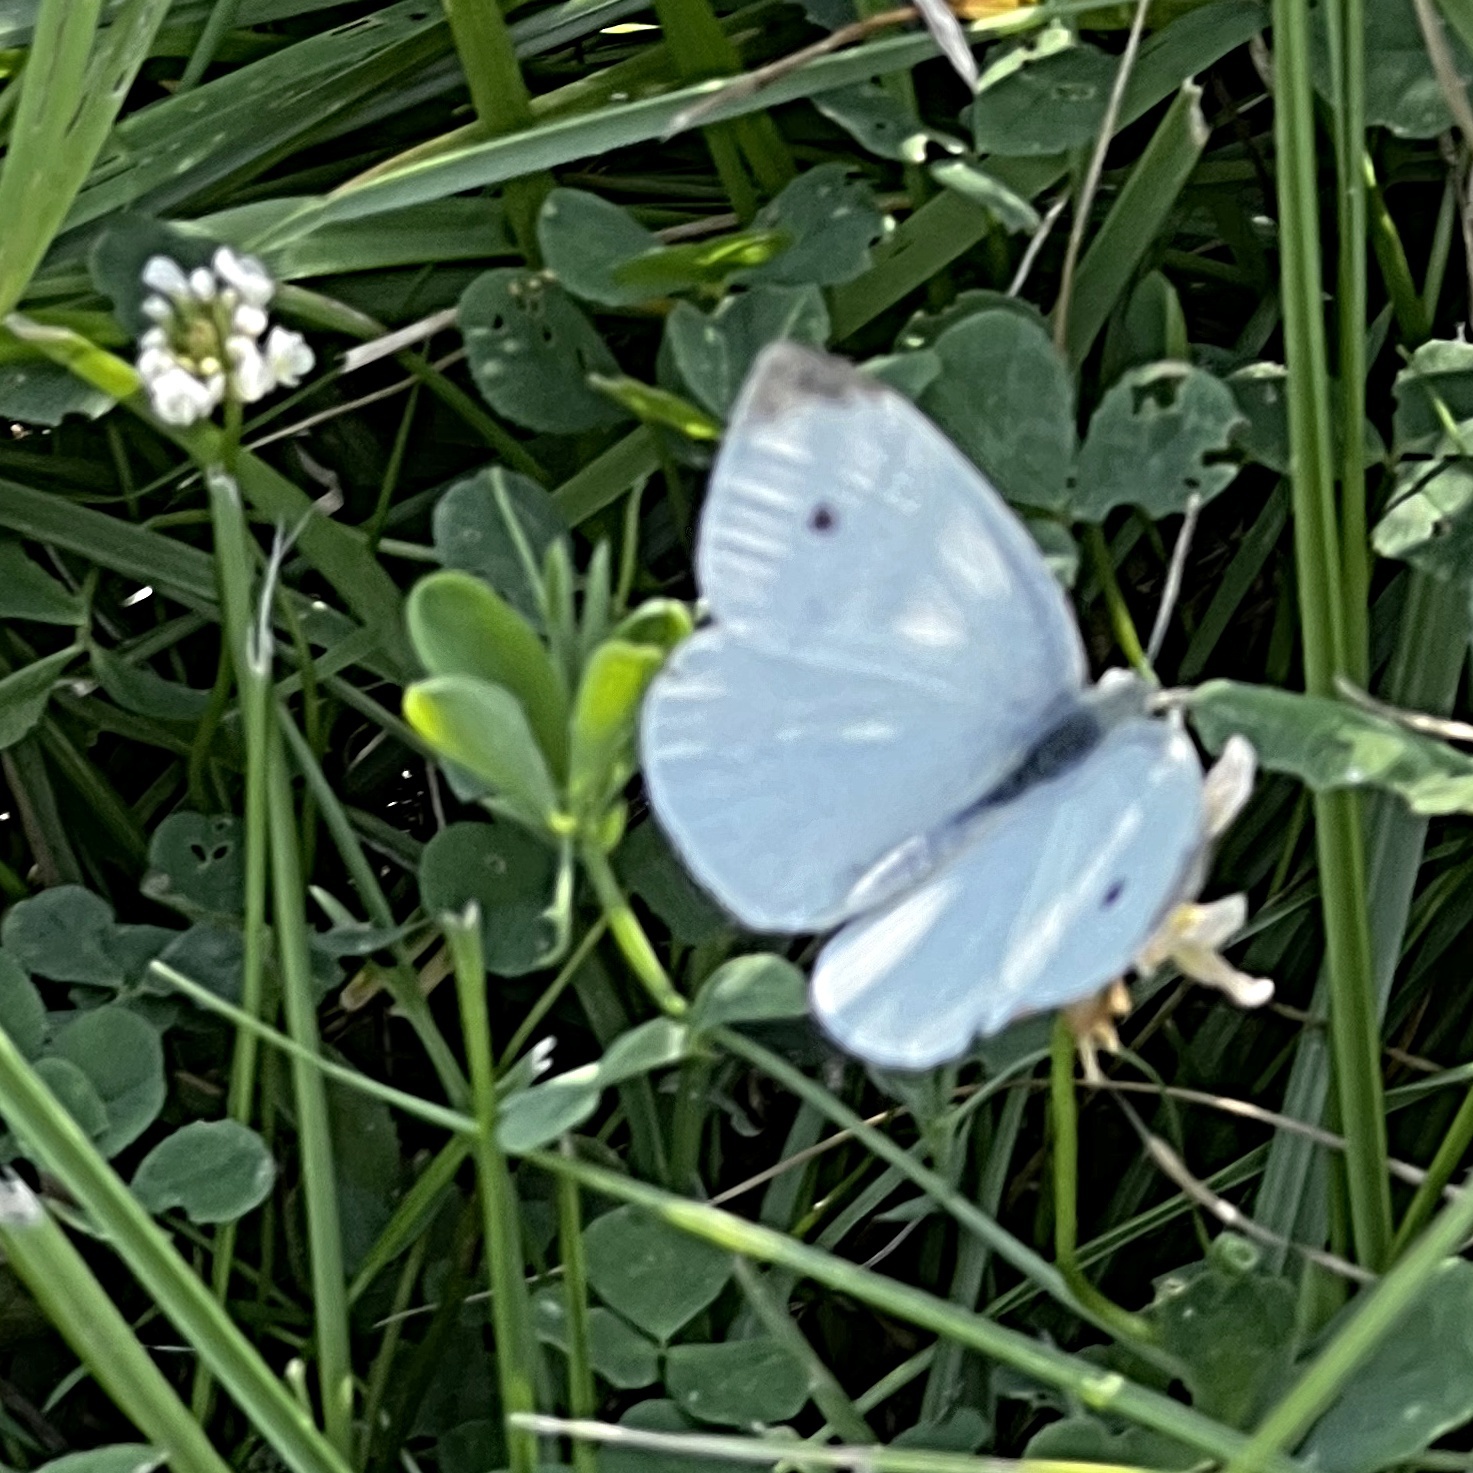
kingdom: Animalia
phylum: Arthropoda
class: Insecta
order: Lepidoptera
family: Pieridae
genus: Pieris
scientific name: Pieris rapae
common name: Small white
